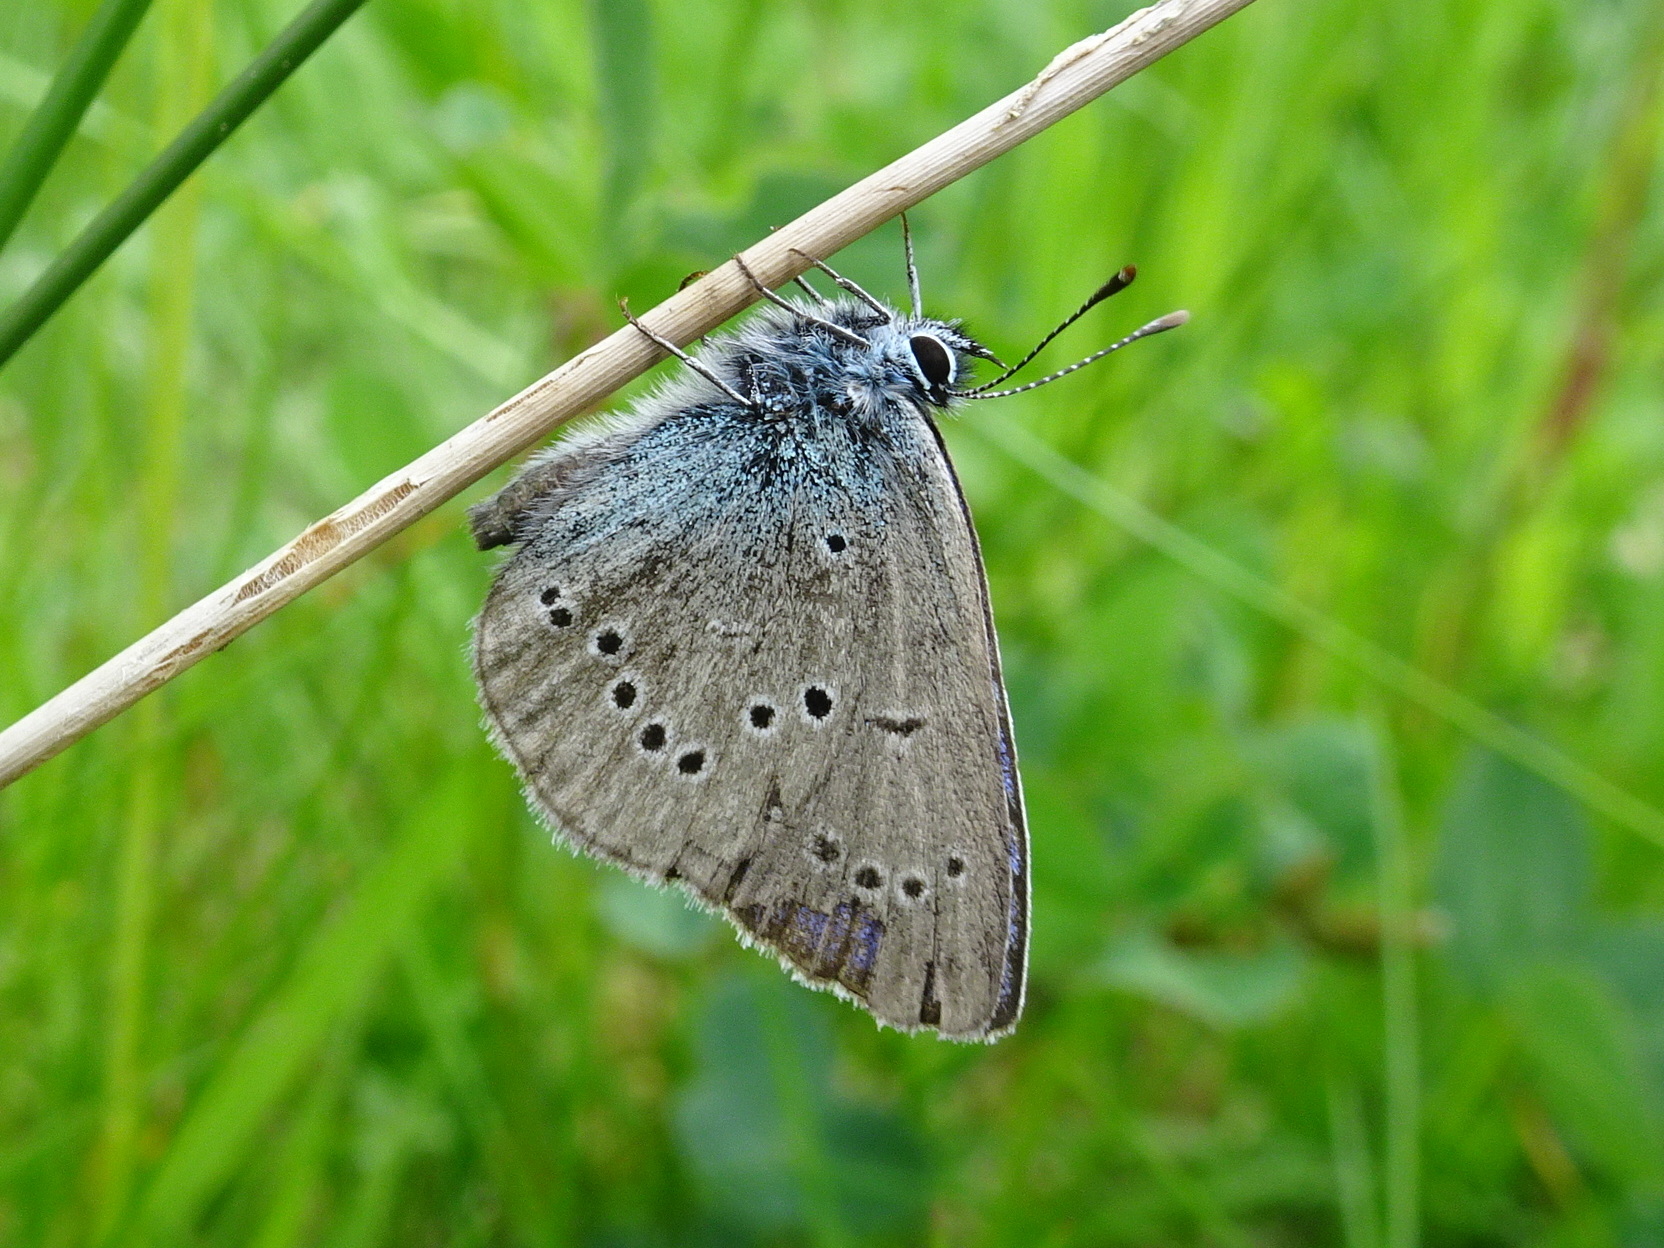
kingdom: Animalia
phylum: Arthropoda
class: Insecta
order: Lepidoptera
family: Lycaenidae
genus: Cyaniris
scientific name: Cyaniris semiargus
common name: Mazarine blue
